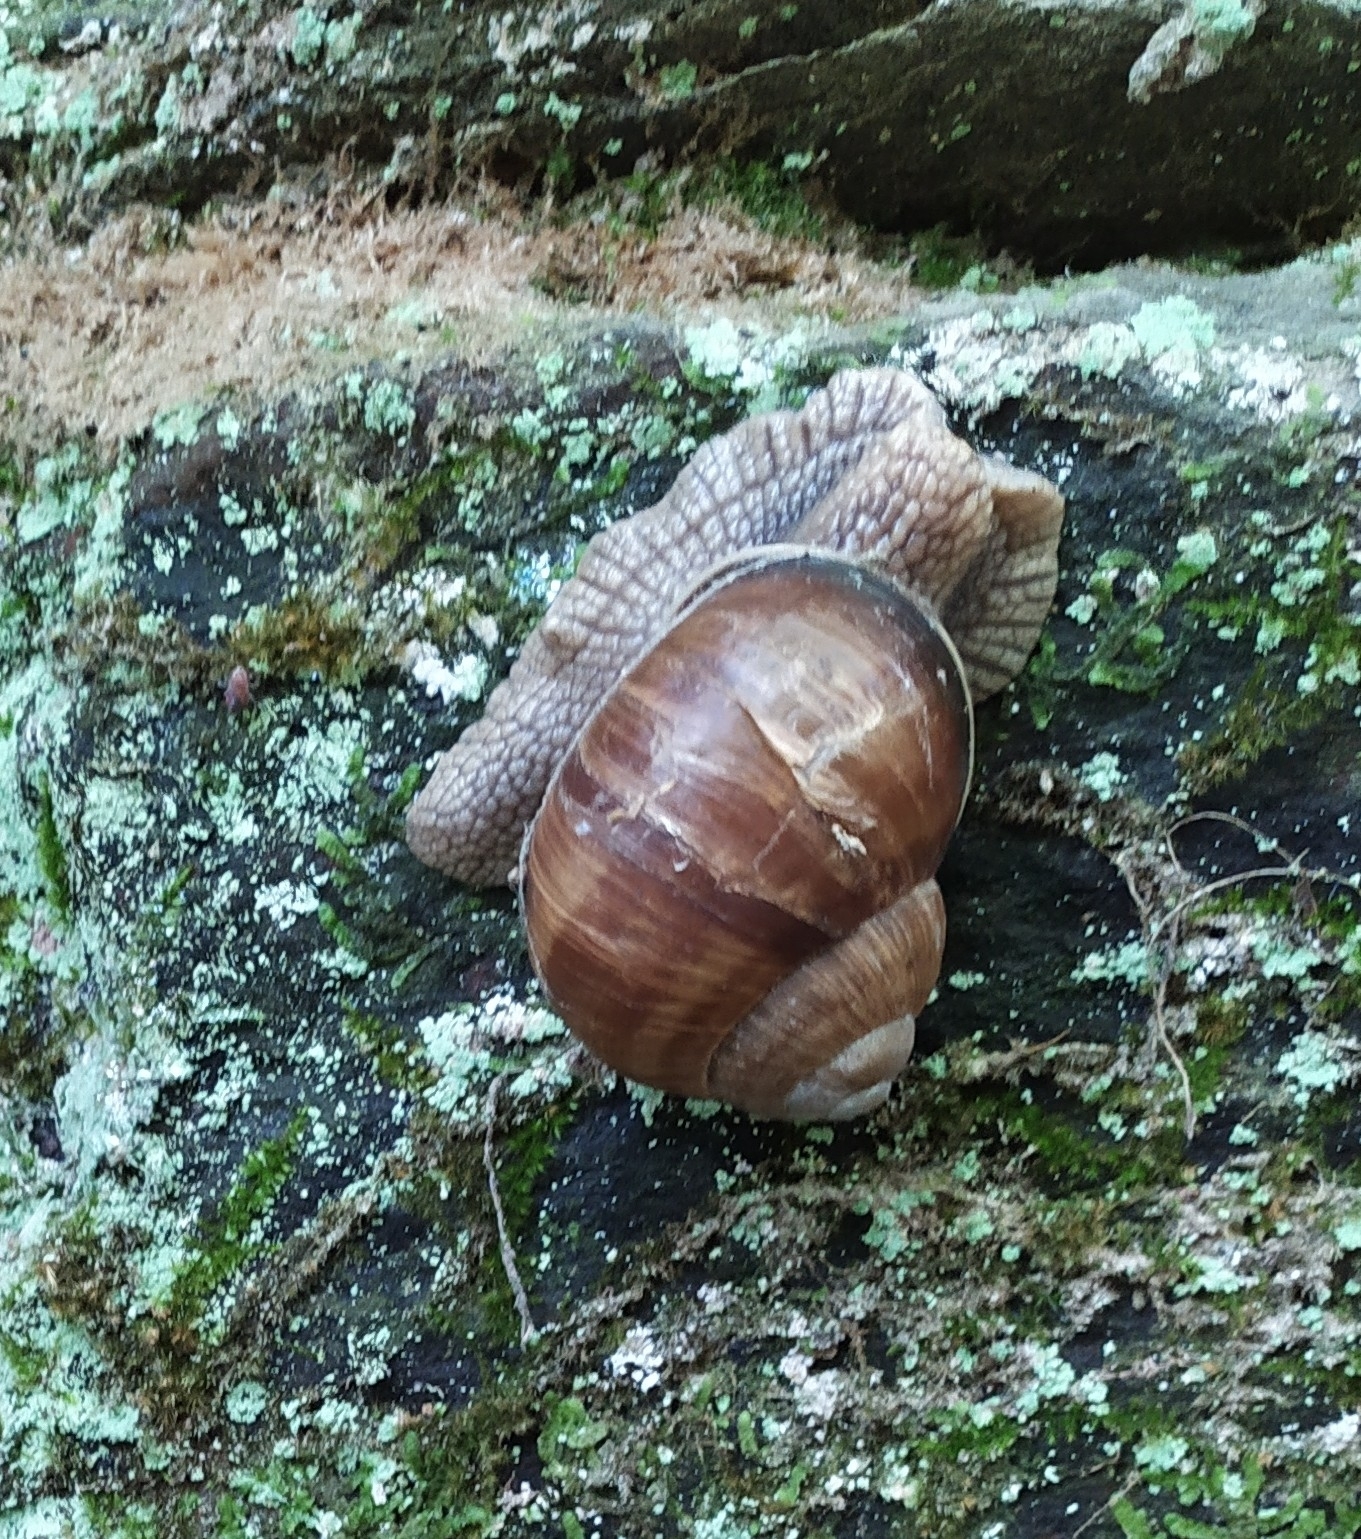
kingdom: Animalia
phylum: Mollusca
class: Gastropoda
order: Stylommatophora
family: Helicidae
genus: Helix
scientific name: Helix pomatia
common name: Roman snail
